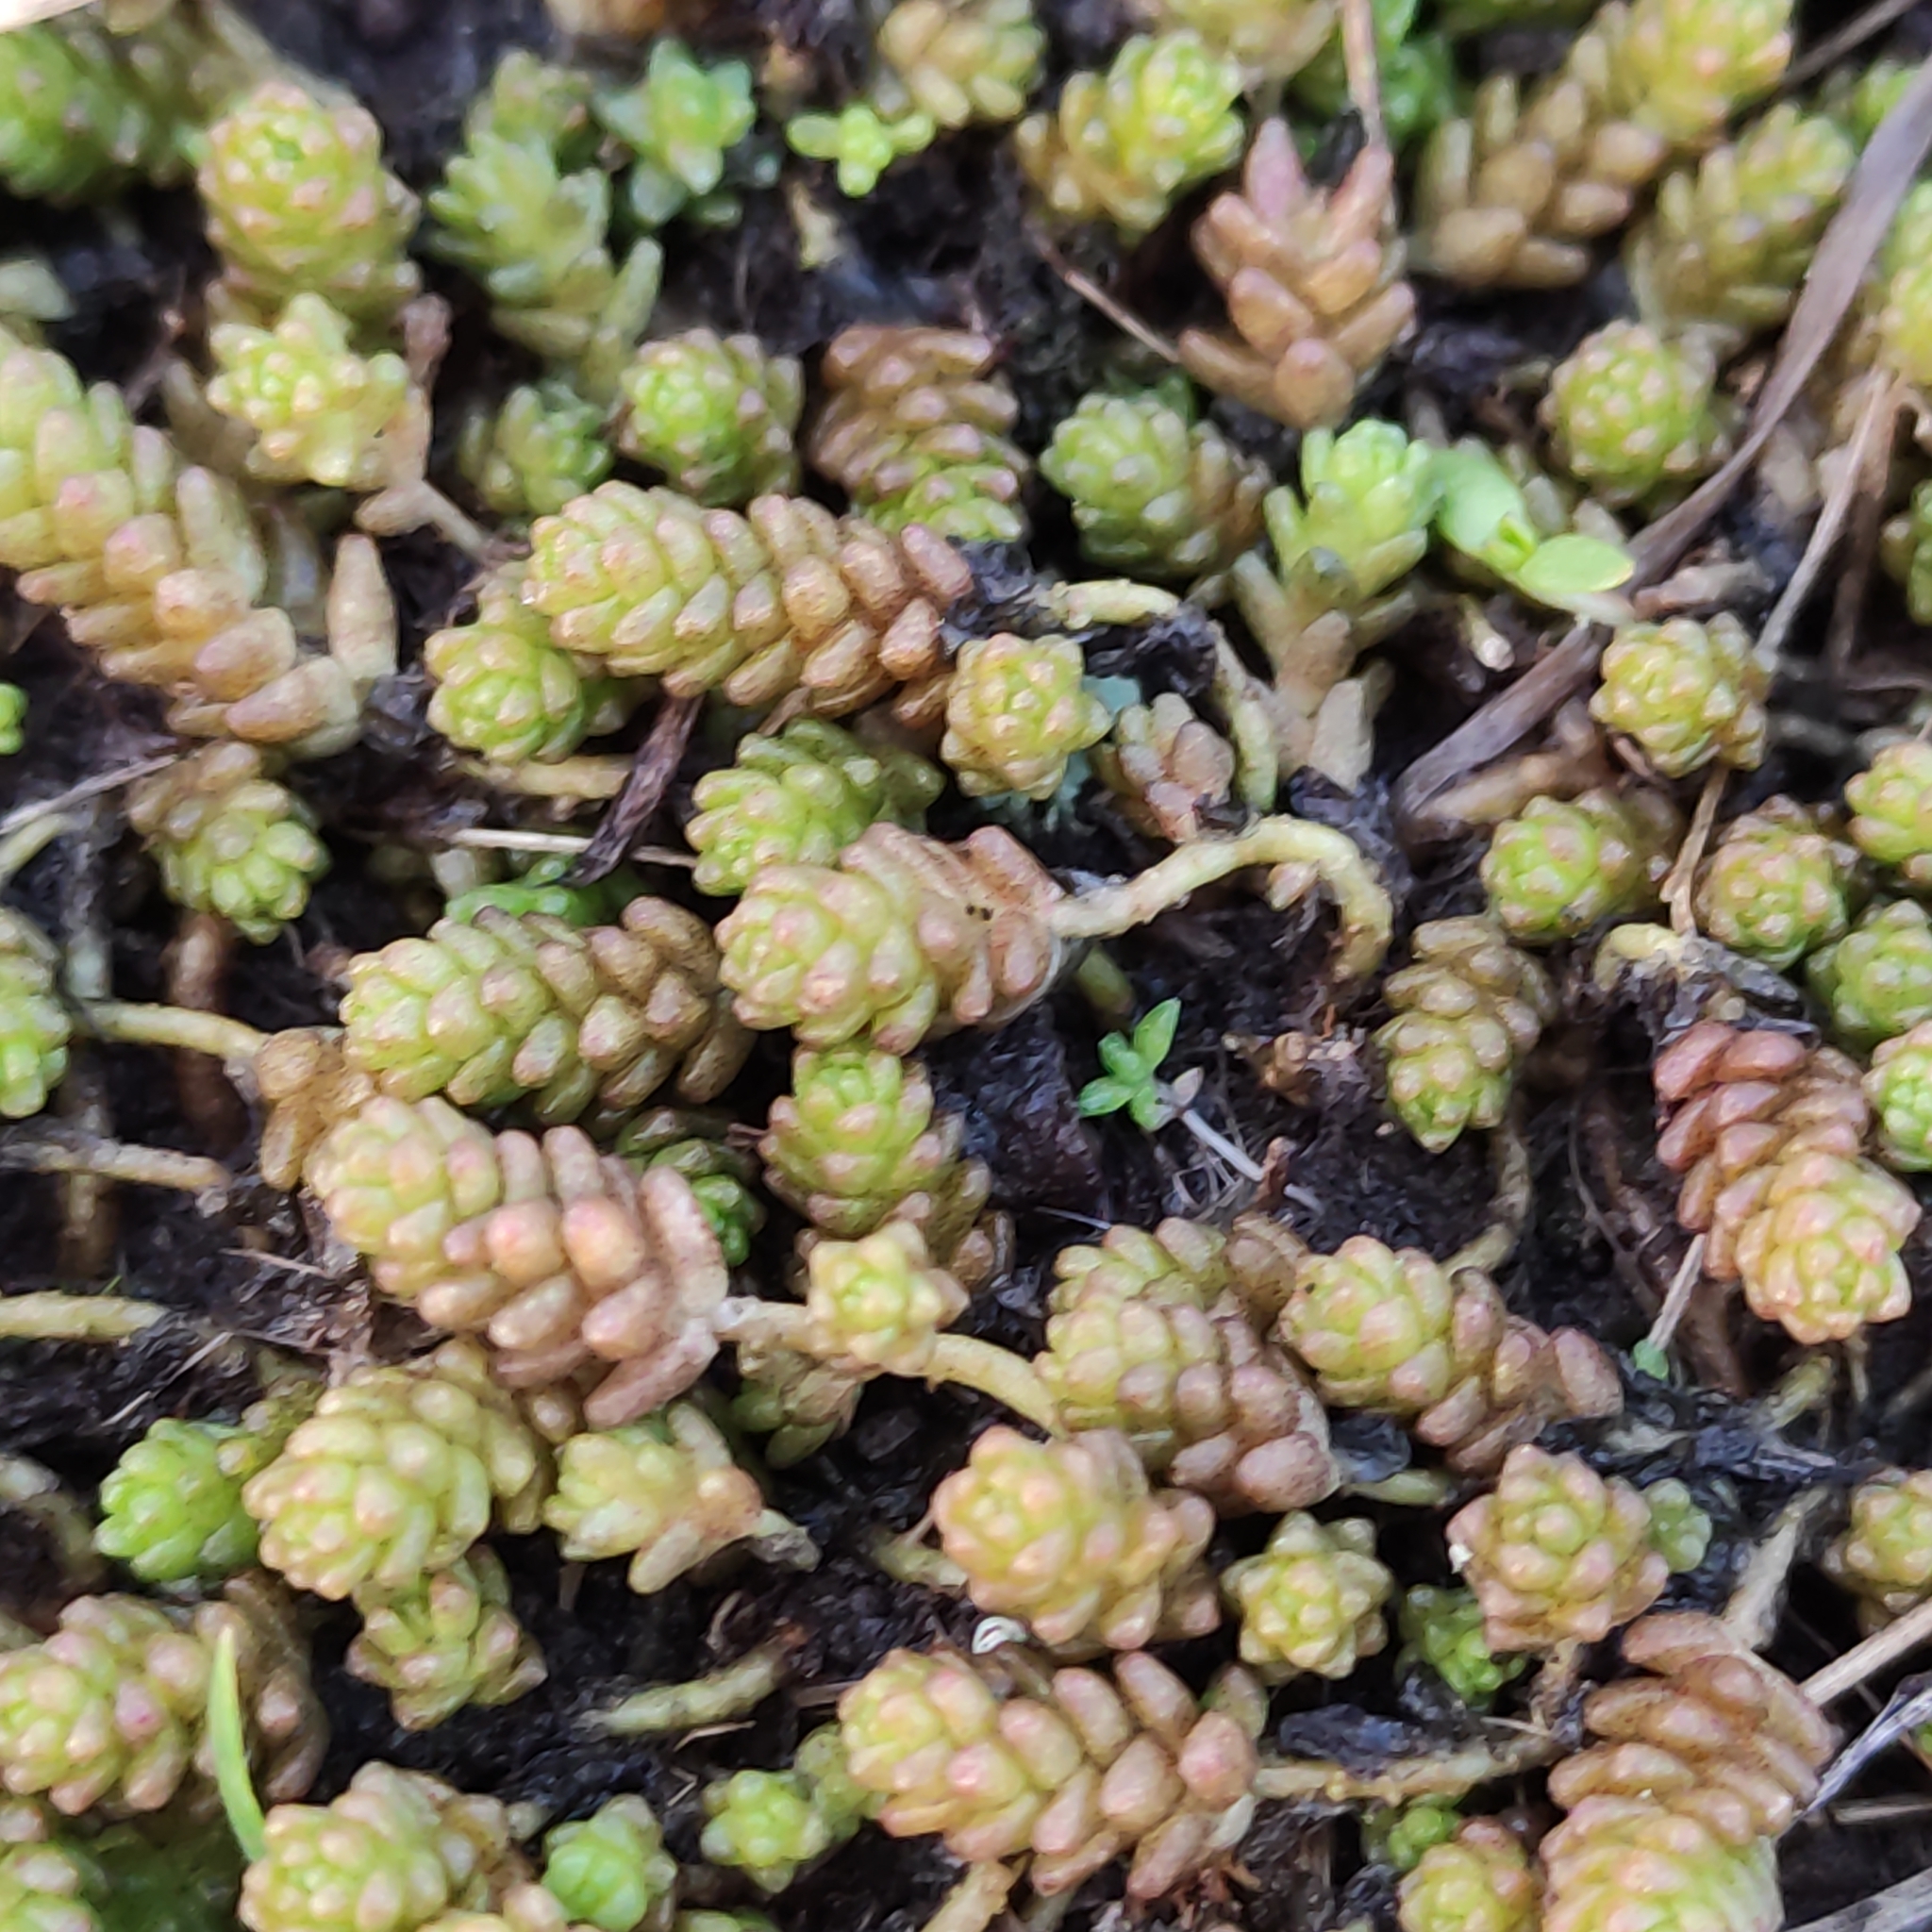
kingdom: Plantae
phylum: Tracheophyta
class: Magnoliopsida
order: Saxifragales
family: Crassulaceae
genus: Sedum
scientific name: Sedum acre
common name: Biting stonecrop
